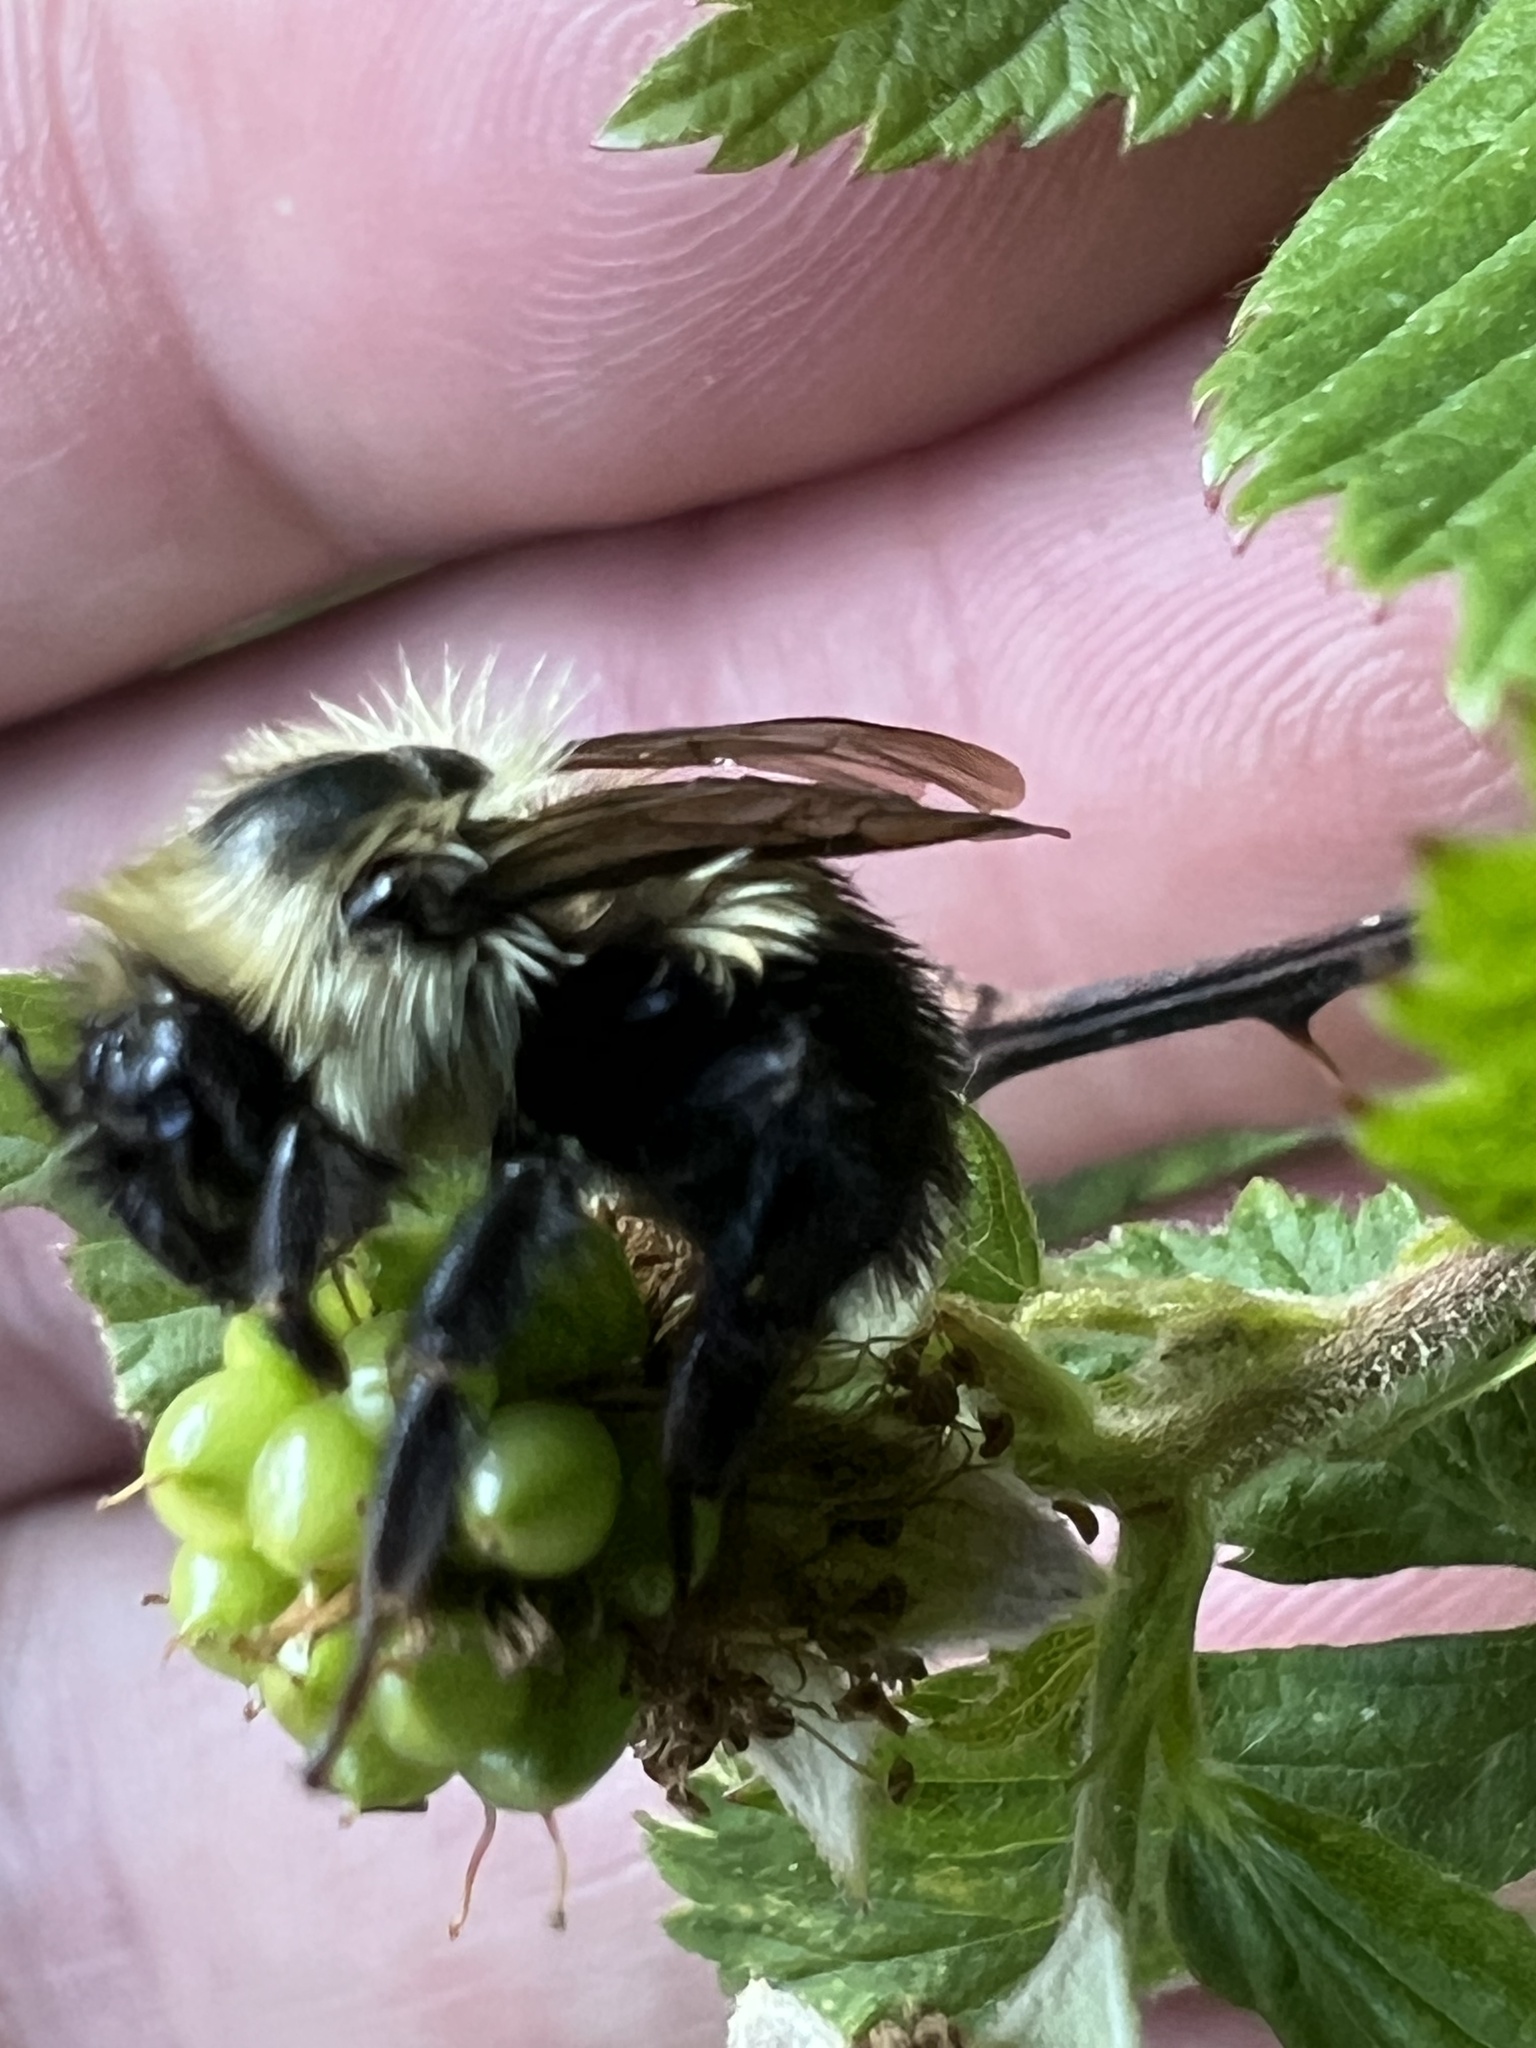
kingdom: Animalia
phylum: Arthropoda
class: Insecta
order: Hymenoptera
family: Apidae
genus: Bombus
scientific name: Bombus bimaculatus
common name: Two-spotted bumble bee
